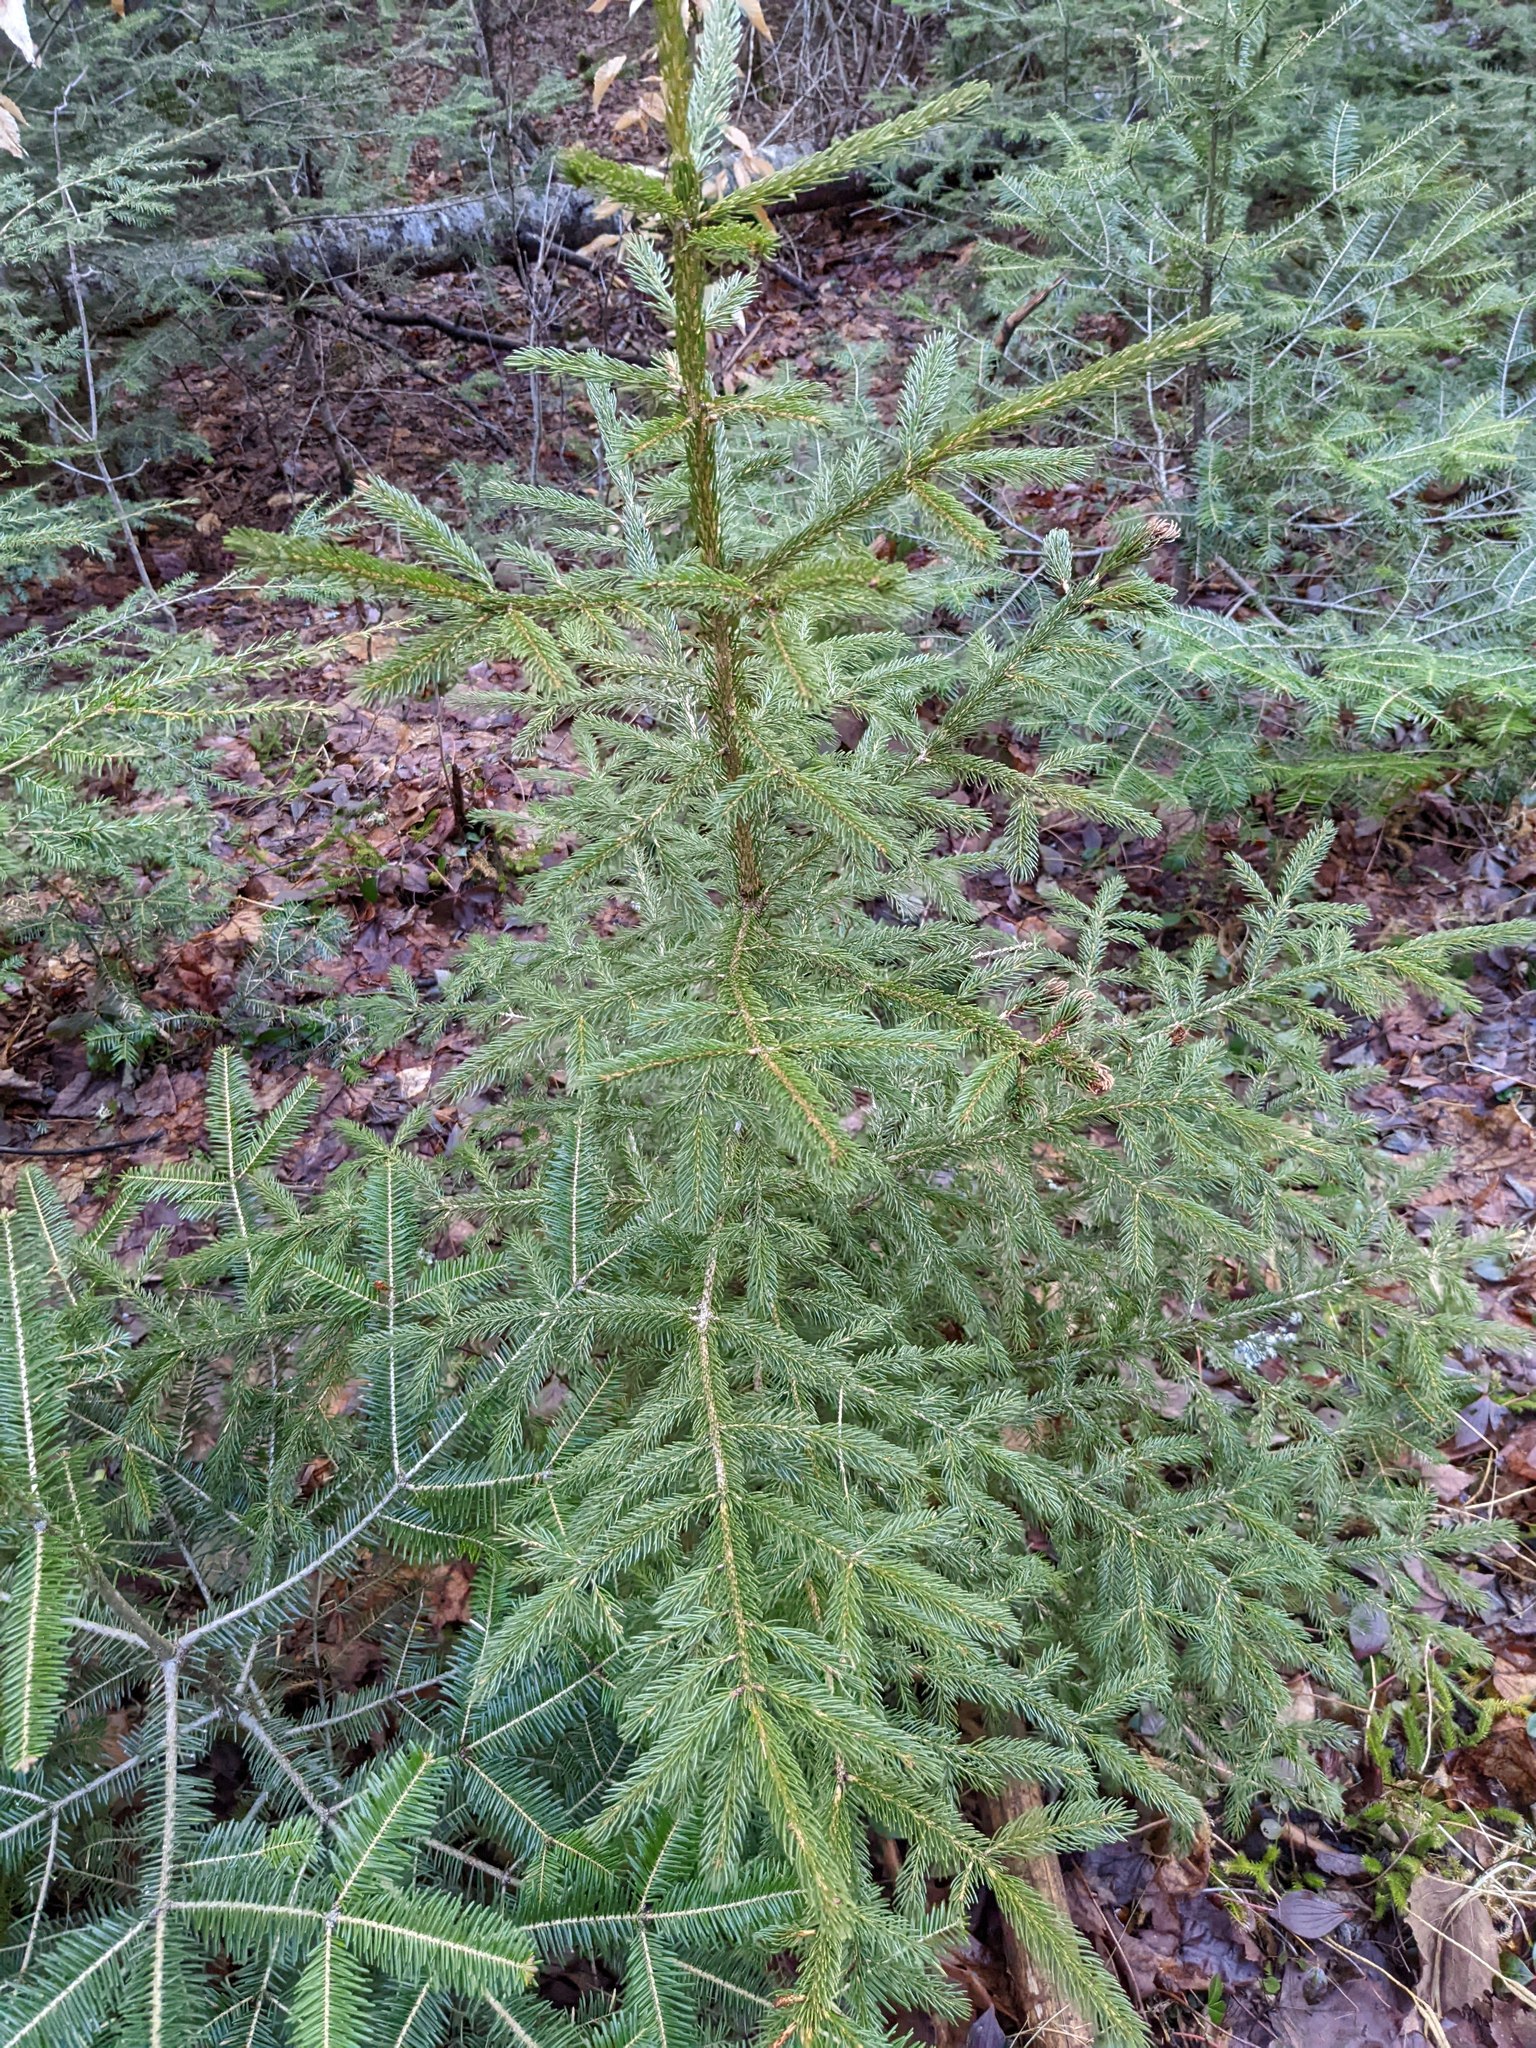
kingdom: Plantae
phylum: Tracheophyta
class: Pinopsida
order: Pinales
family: Pinaceae
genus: Picea
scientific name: Picea rubens
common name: Red spruce
